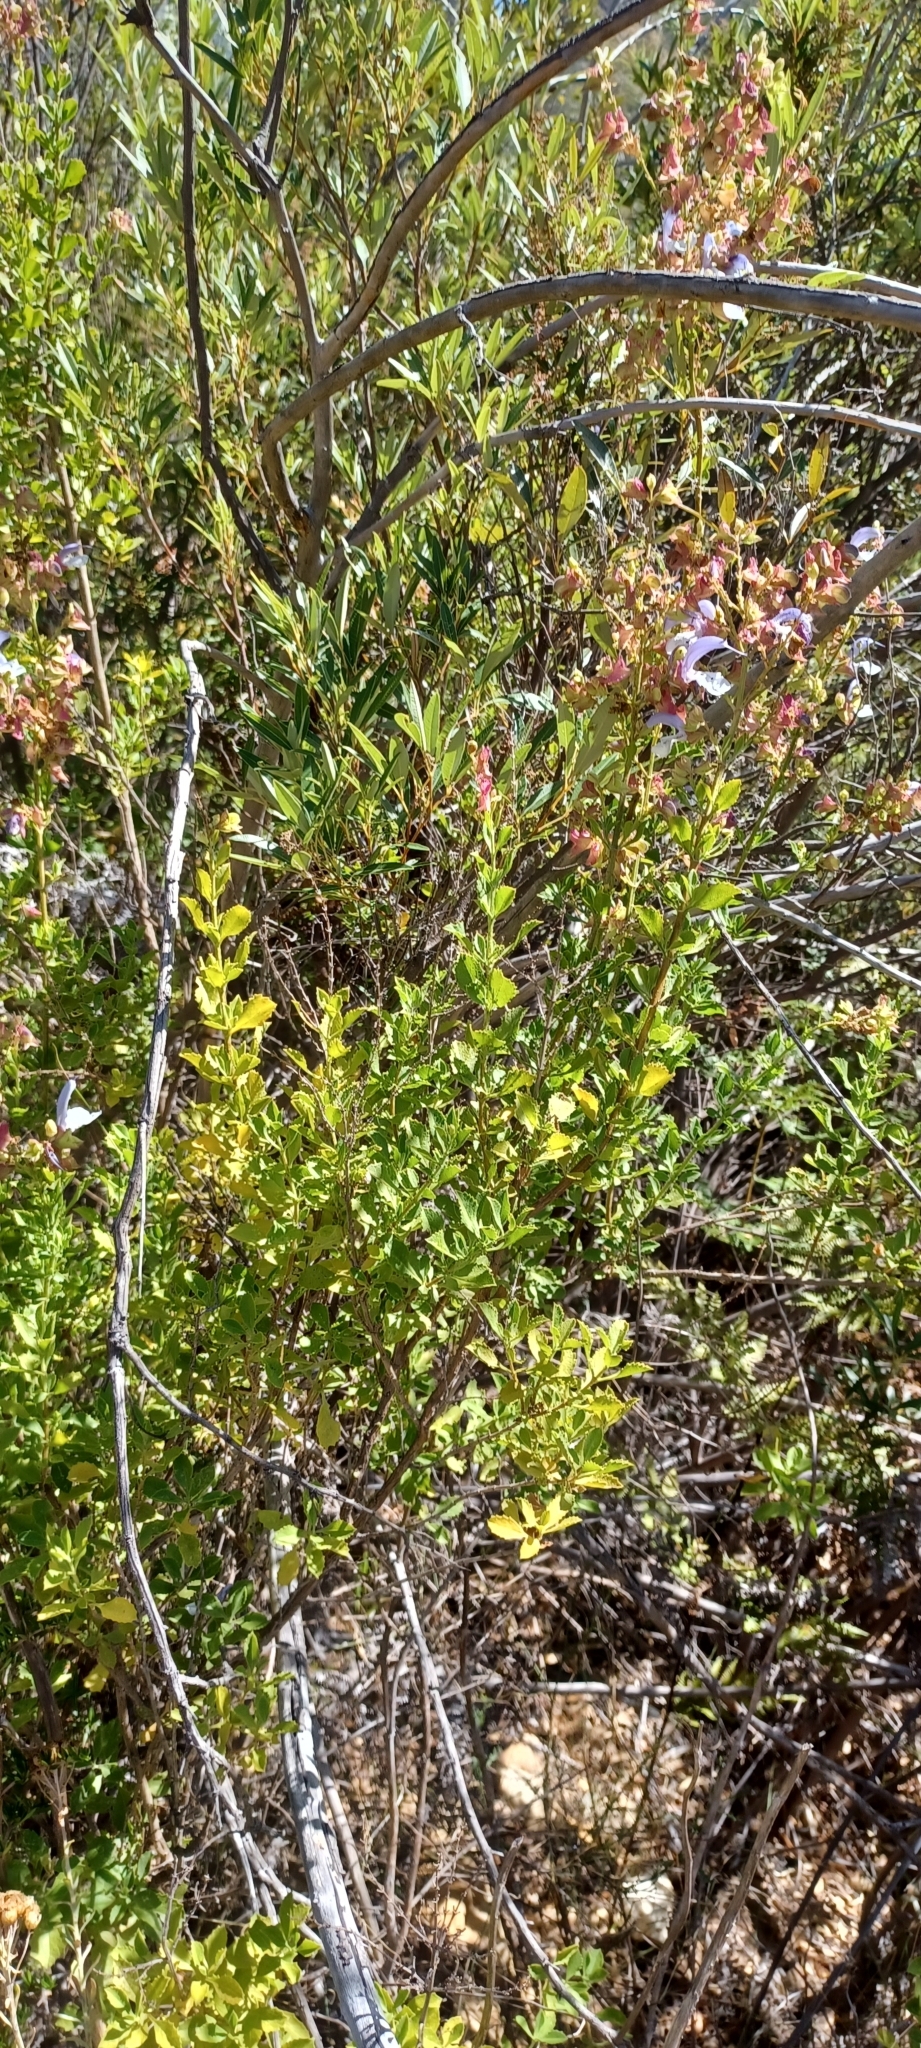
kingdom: Plantae
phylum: Tracheophyta
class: Magnoliopsida
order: Lamiales
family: Lamiaceae
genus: Salvia
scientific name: Salvia chamelaeagnea
